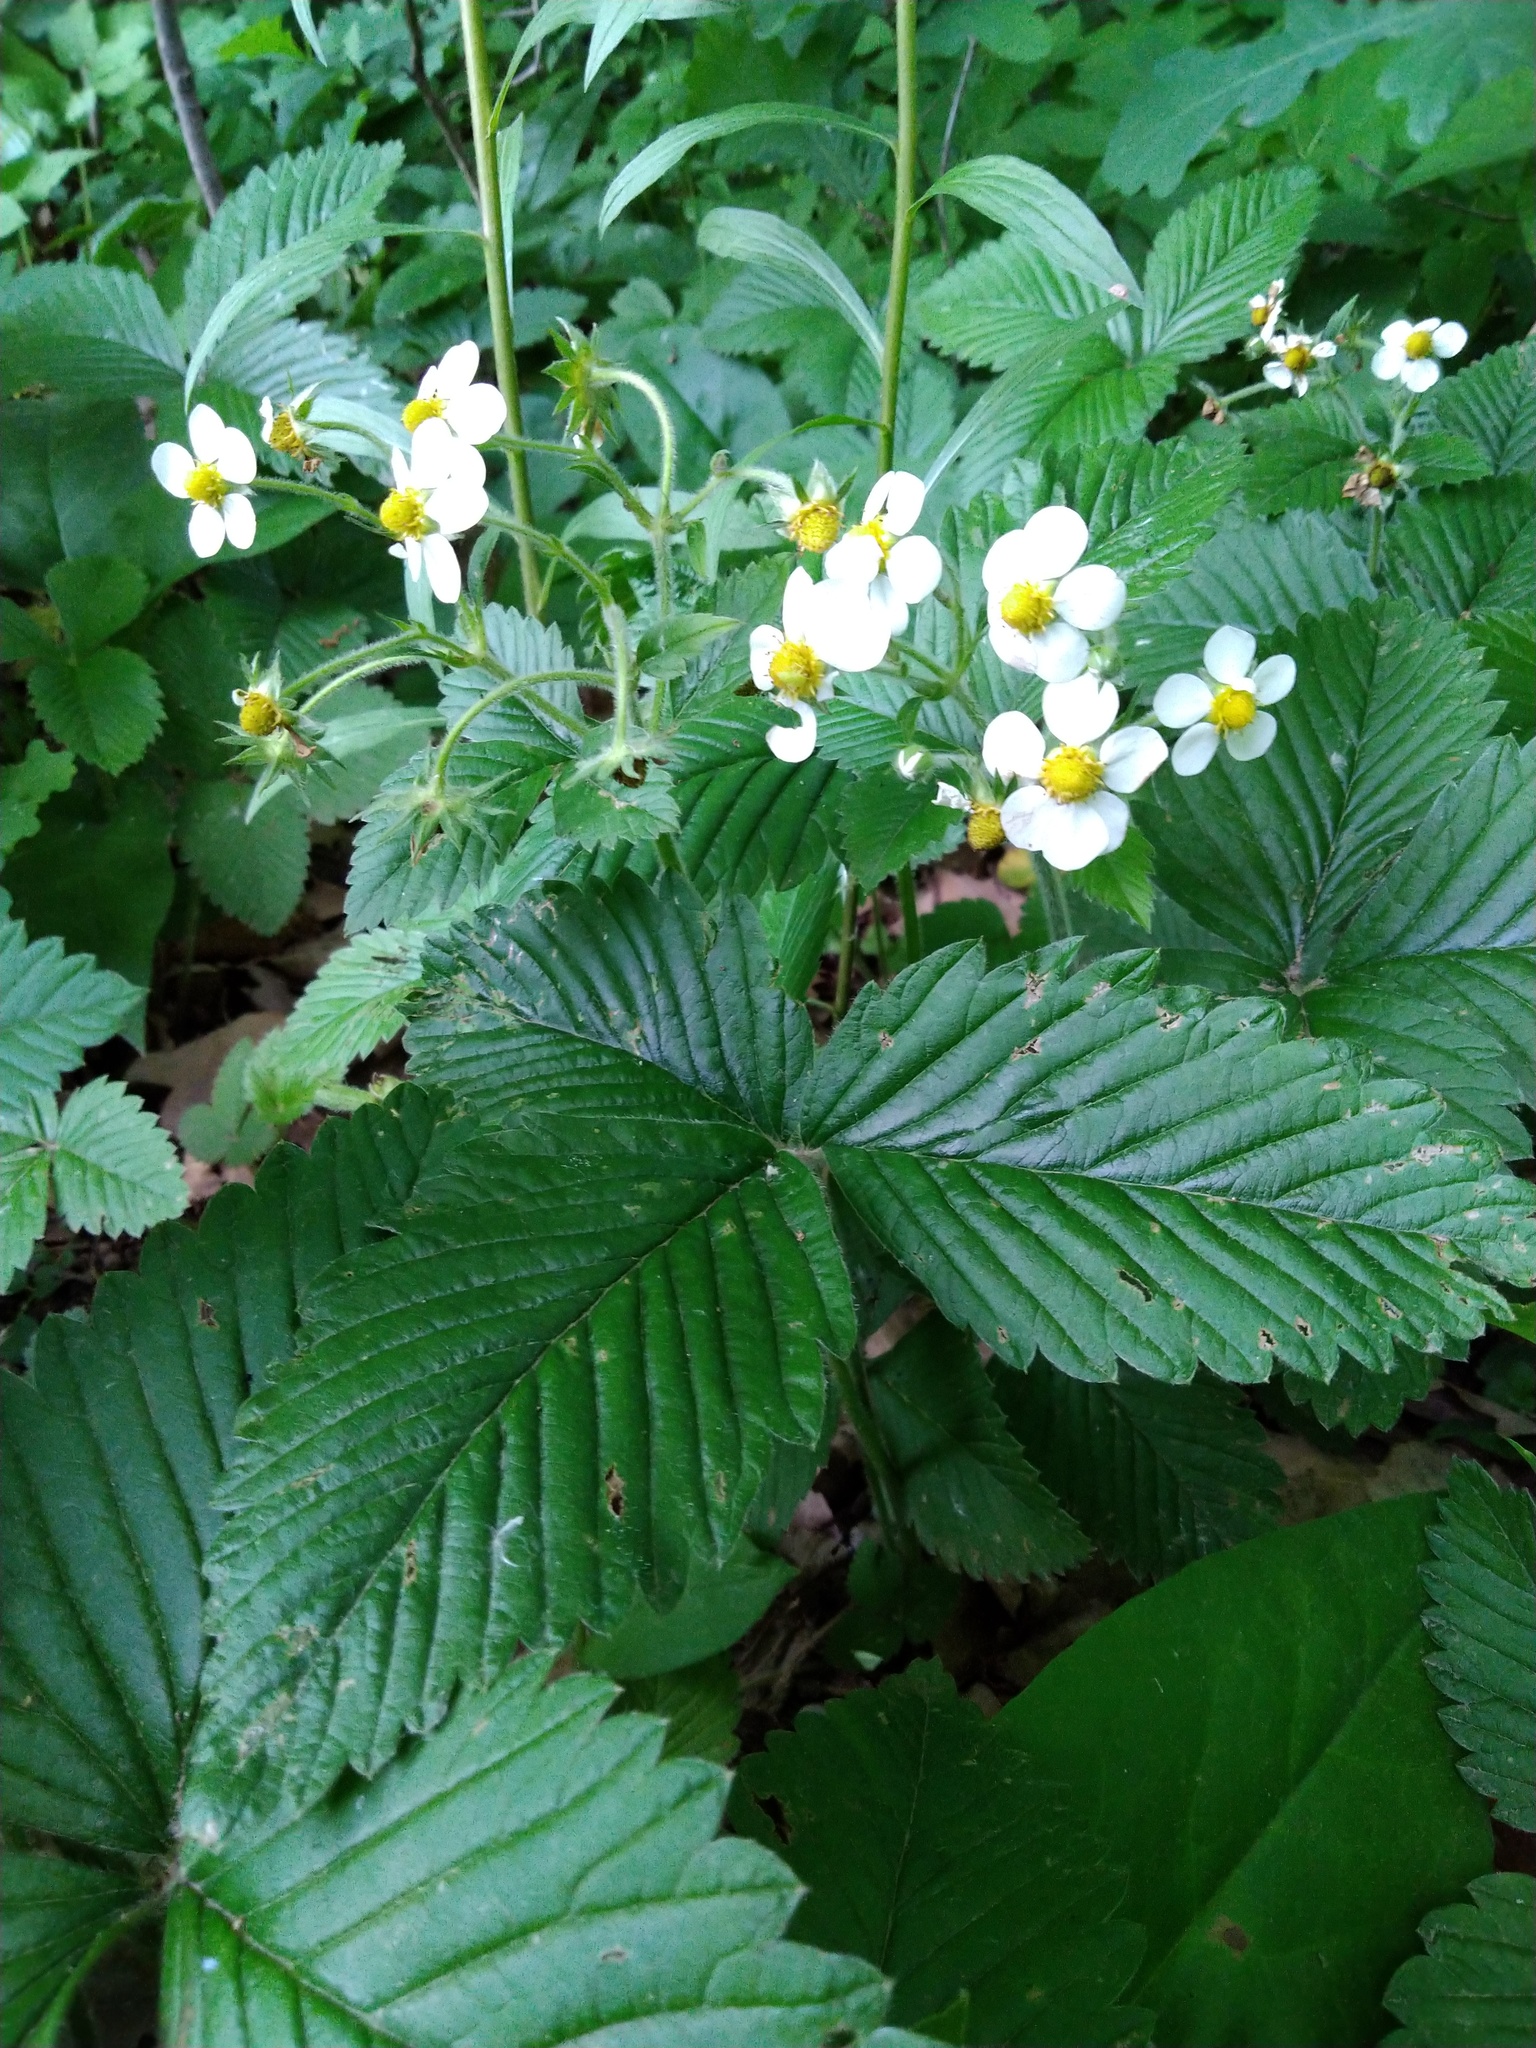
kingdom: Plantae
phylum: Tracheophyta
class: Magnoliopsida
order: Rosales
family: Rosaceae
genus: Fragaria
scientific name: Fragaria moschata
